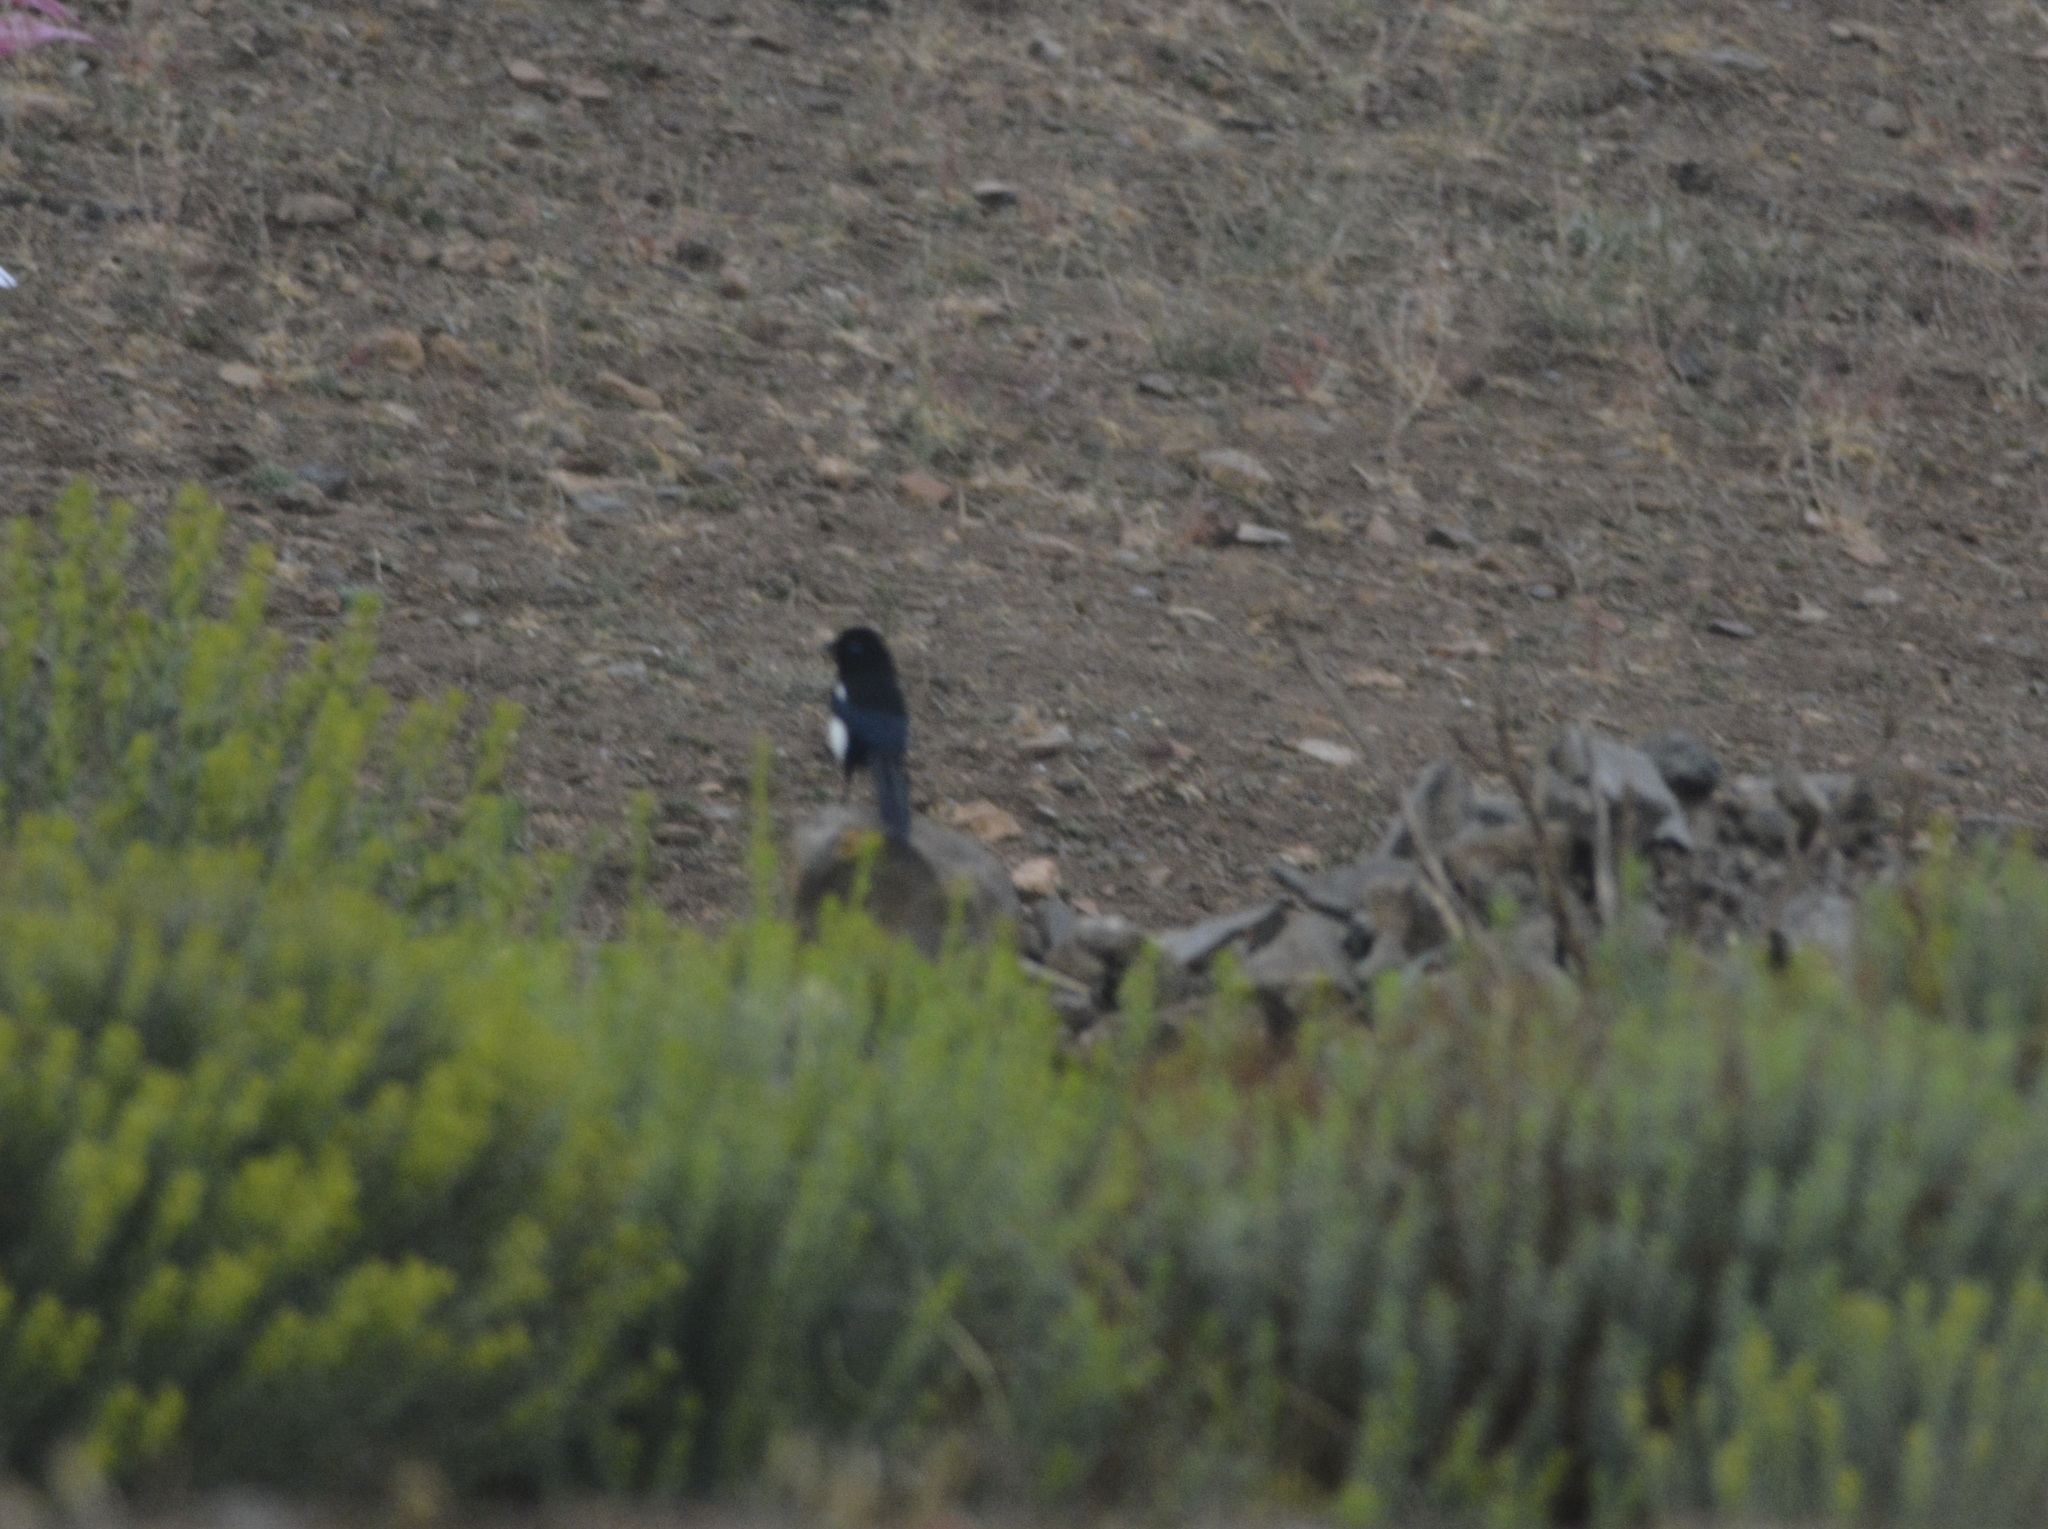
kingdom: Animalia
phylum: Chordata
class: Aves
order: Passeriformes
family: Corvidae
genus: Pica
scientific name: Pica mauritanica
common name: Maghreb magpie
